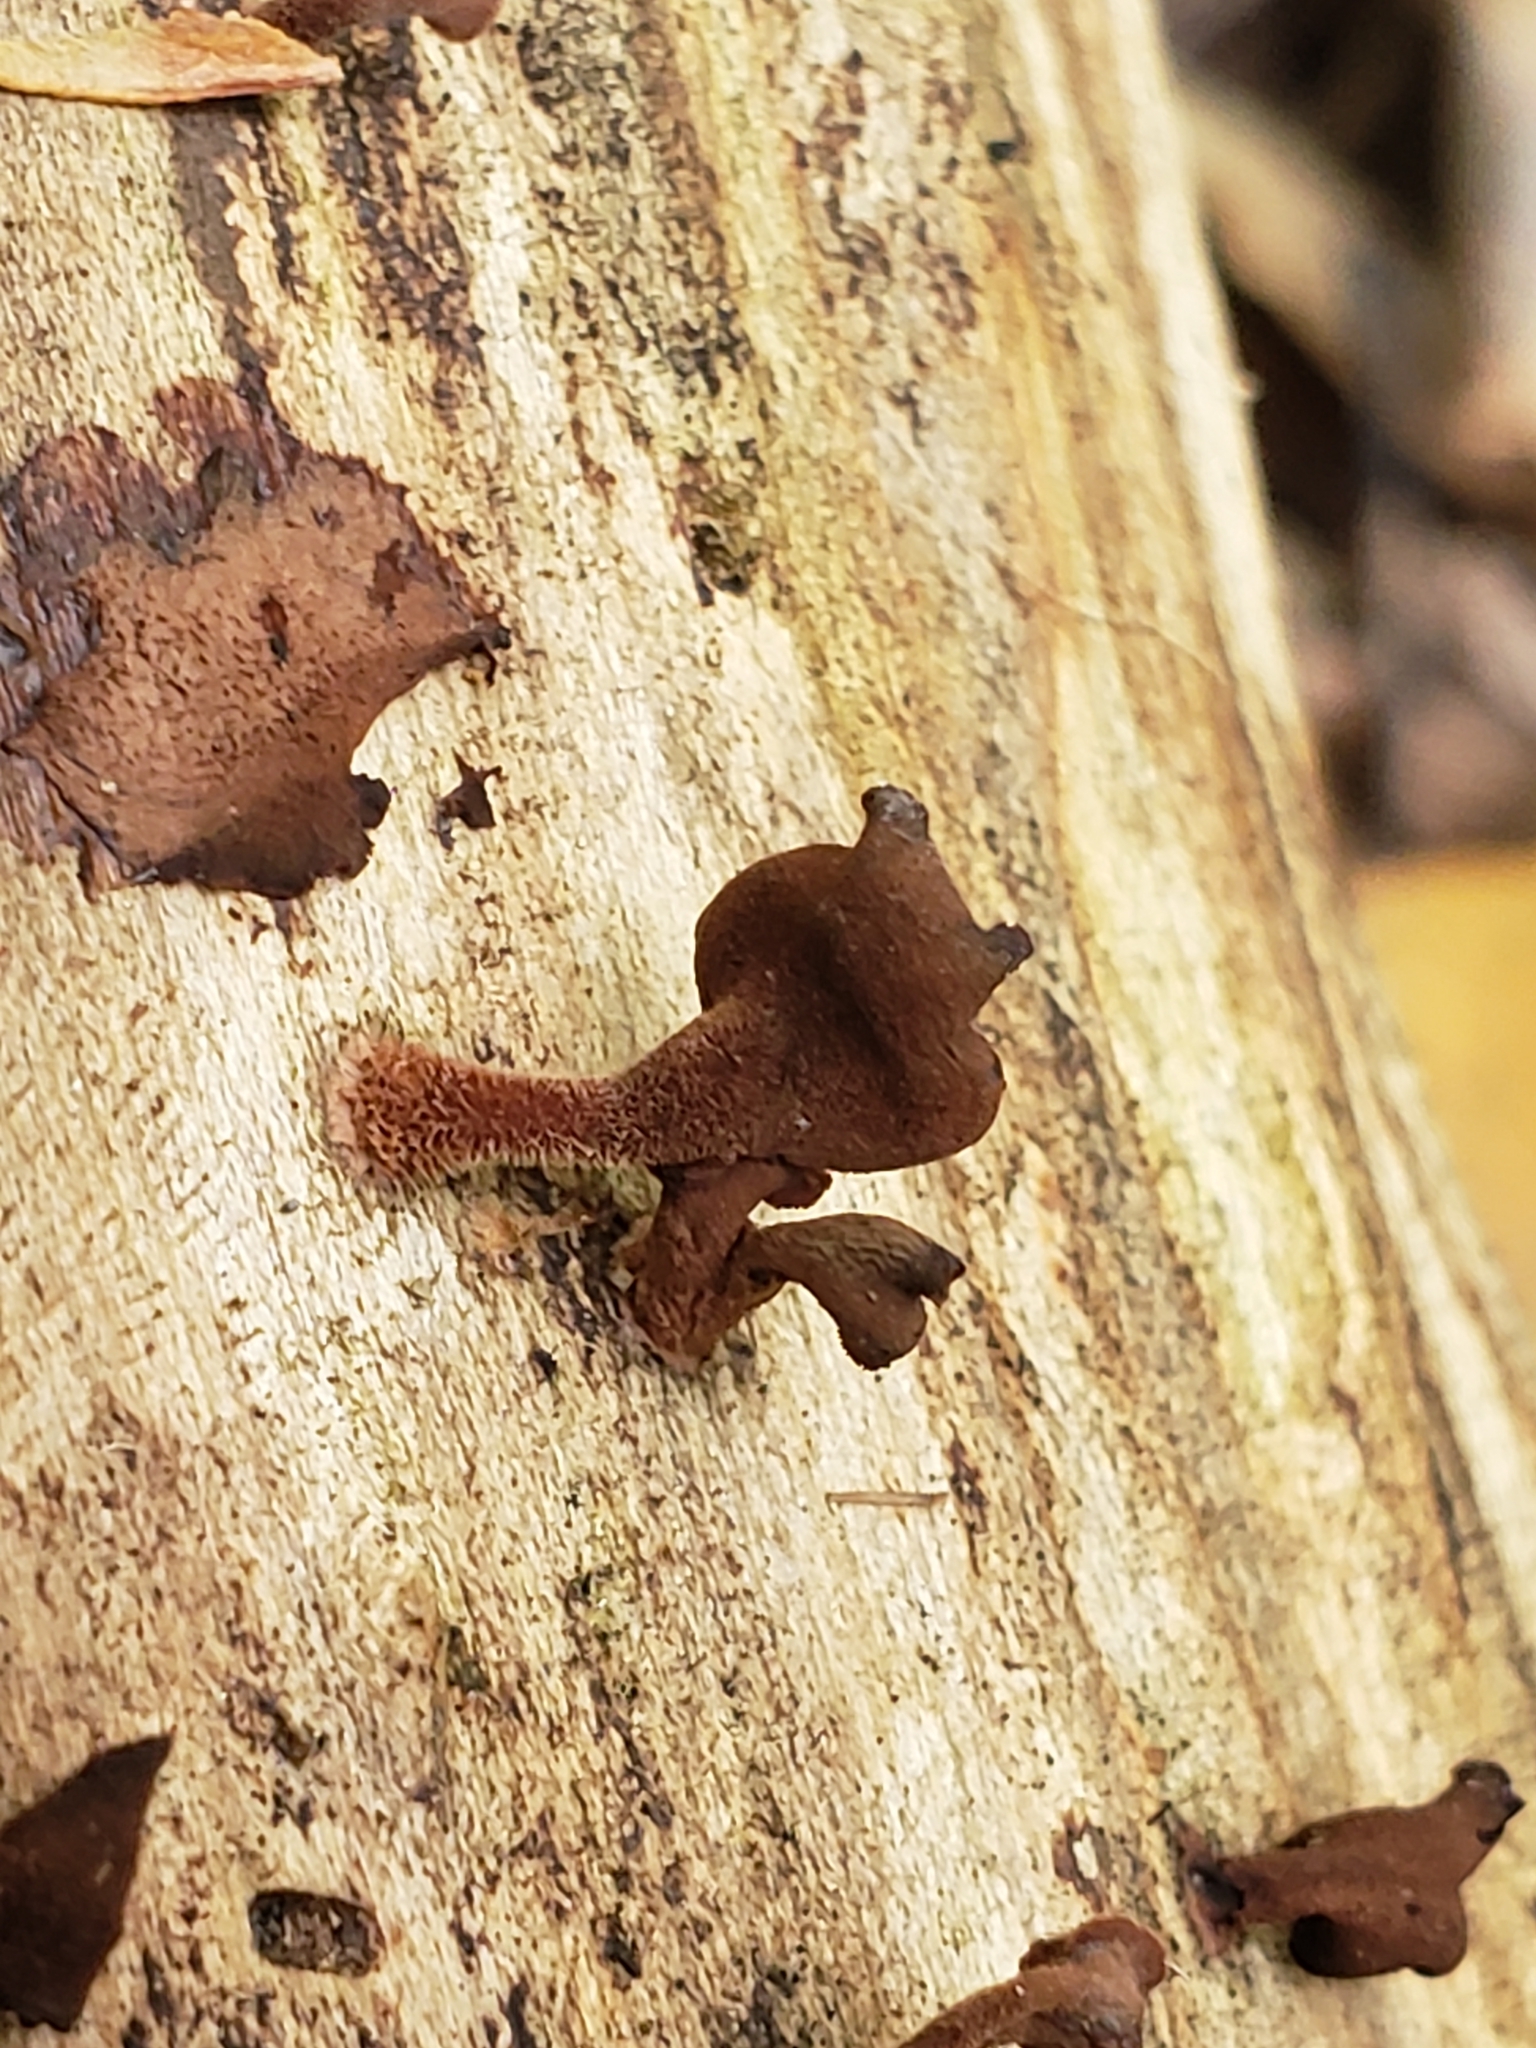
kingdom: Fungi
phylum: Basidiomycota
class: Dacrymycetes
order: Dacrymycetales
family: Dacrymycetaceae
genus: Dacryopinax
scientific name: Dacryopinax elegans
